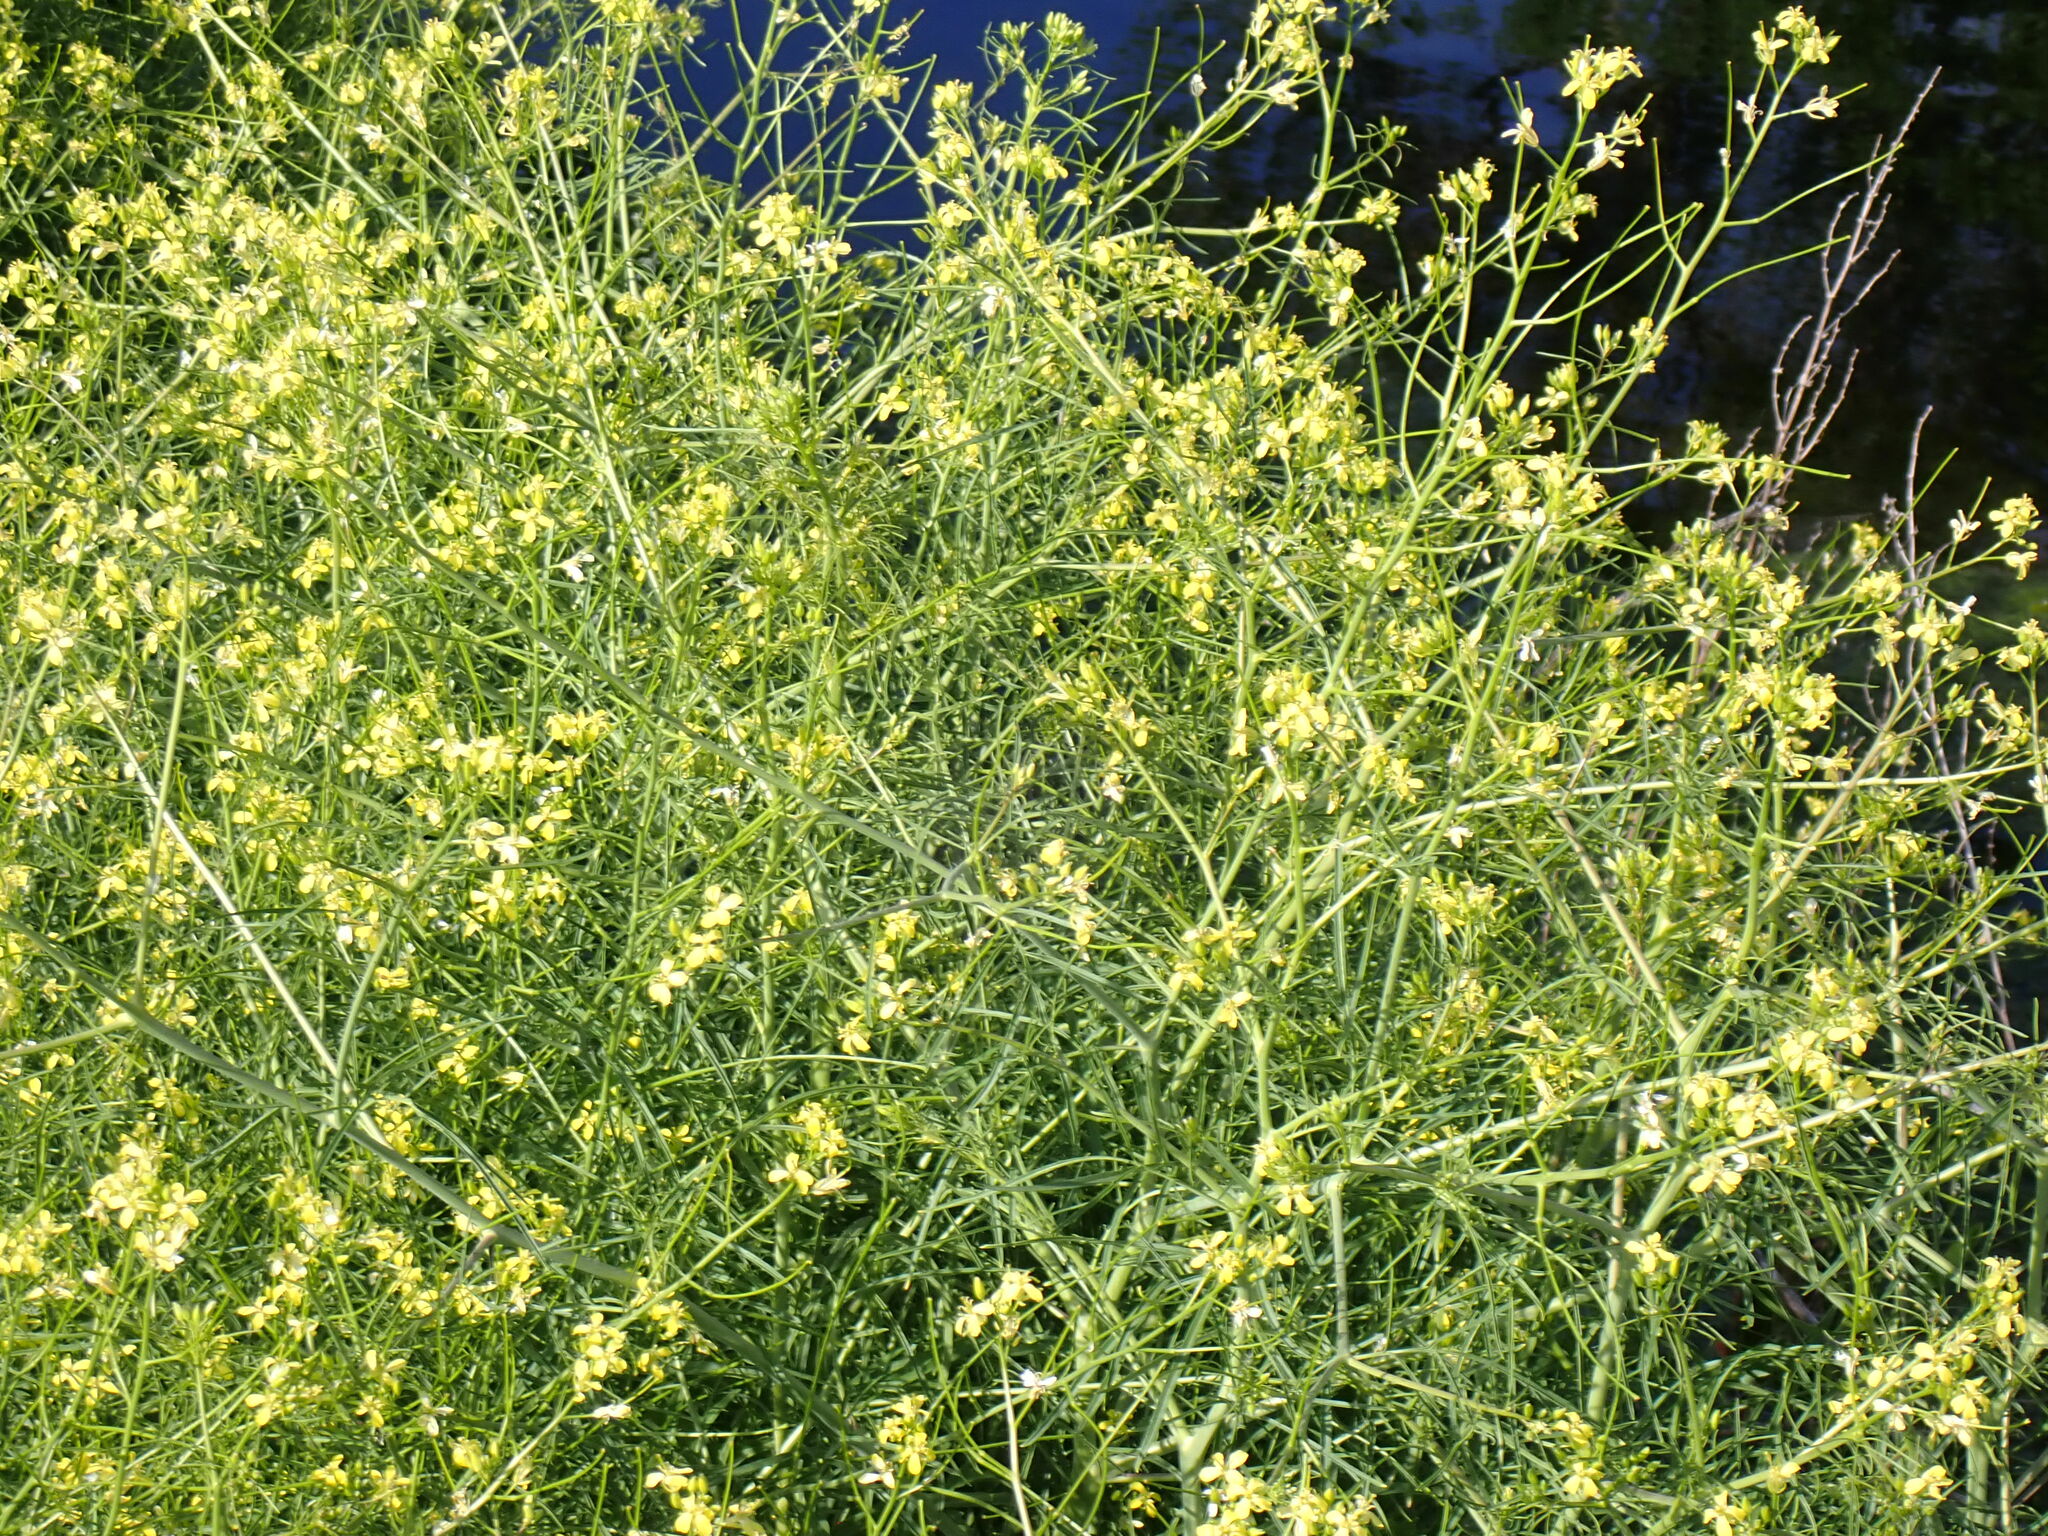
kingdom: Plantae
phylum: Tracheophyta
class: Magnoliopsida
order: Brassicales
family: Brassicaceae
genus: Sisymbrium
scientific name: Sisymbrium altissimum
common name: Tall rocket
